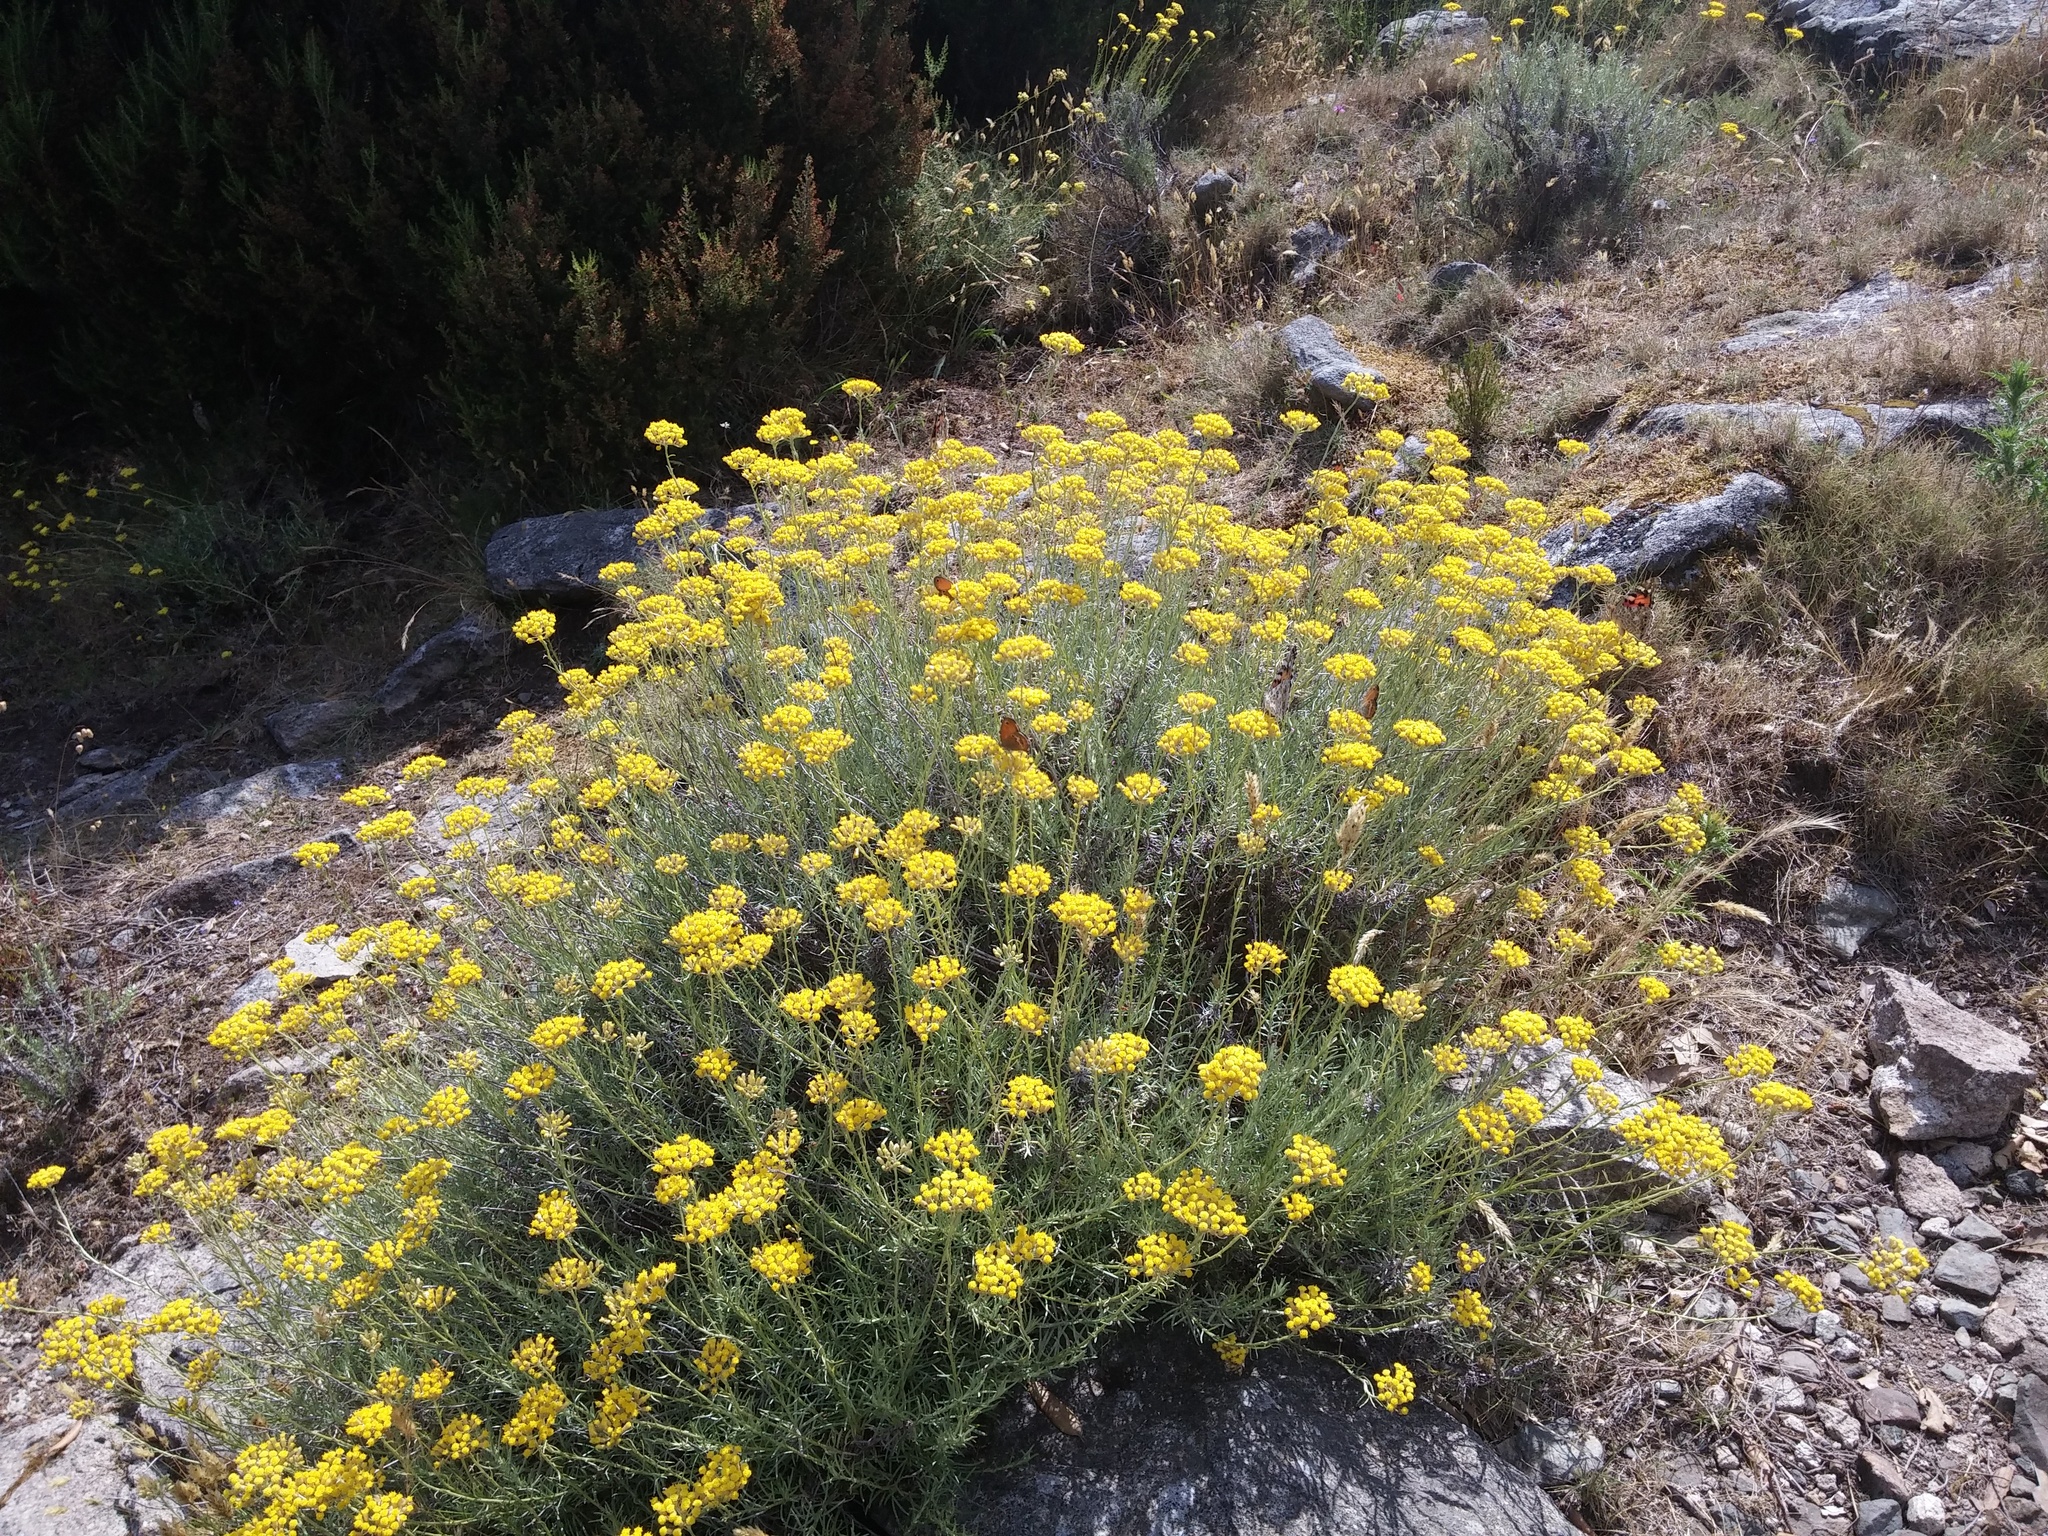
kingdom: Plantae
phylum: Tracheophyta
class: Magnoliopsida
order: Asterales
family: Asteraceae
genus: Helichrysum
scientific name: Helichrysum italicum
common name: Curryplant
